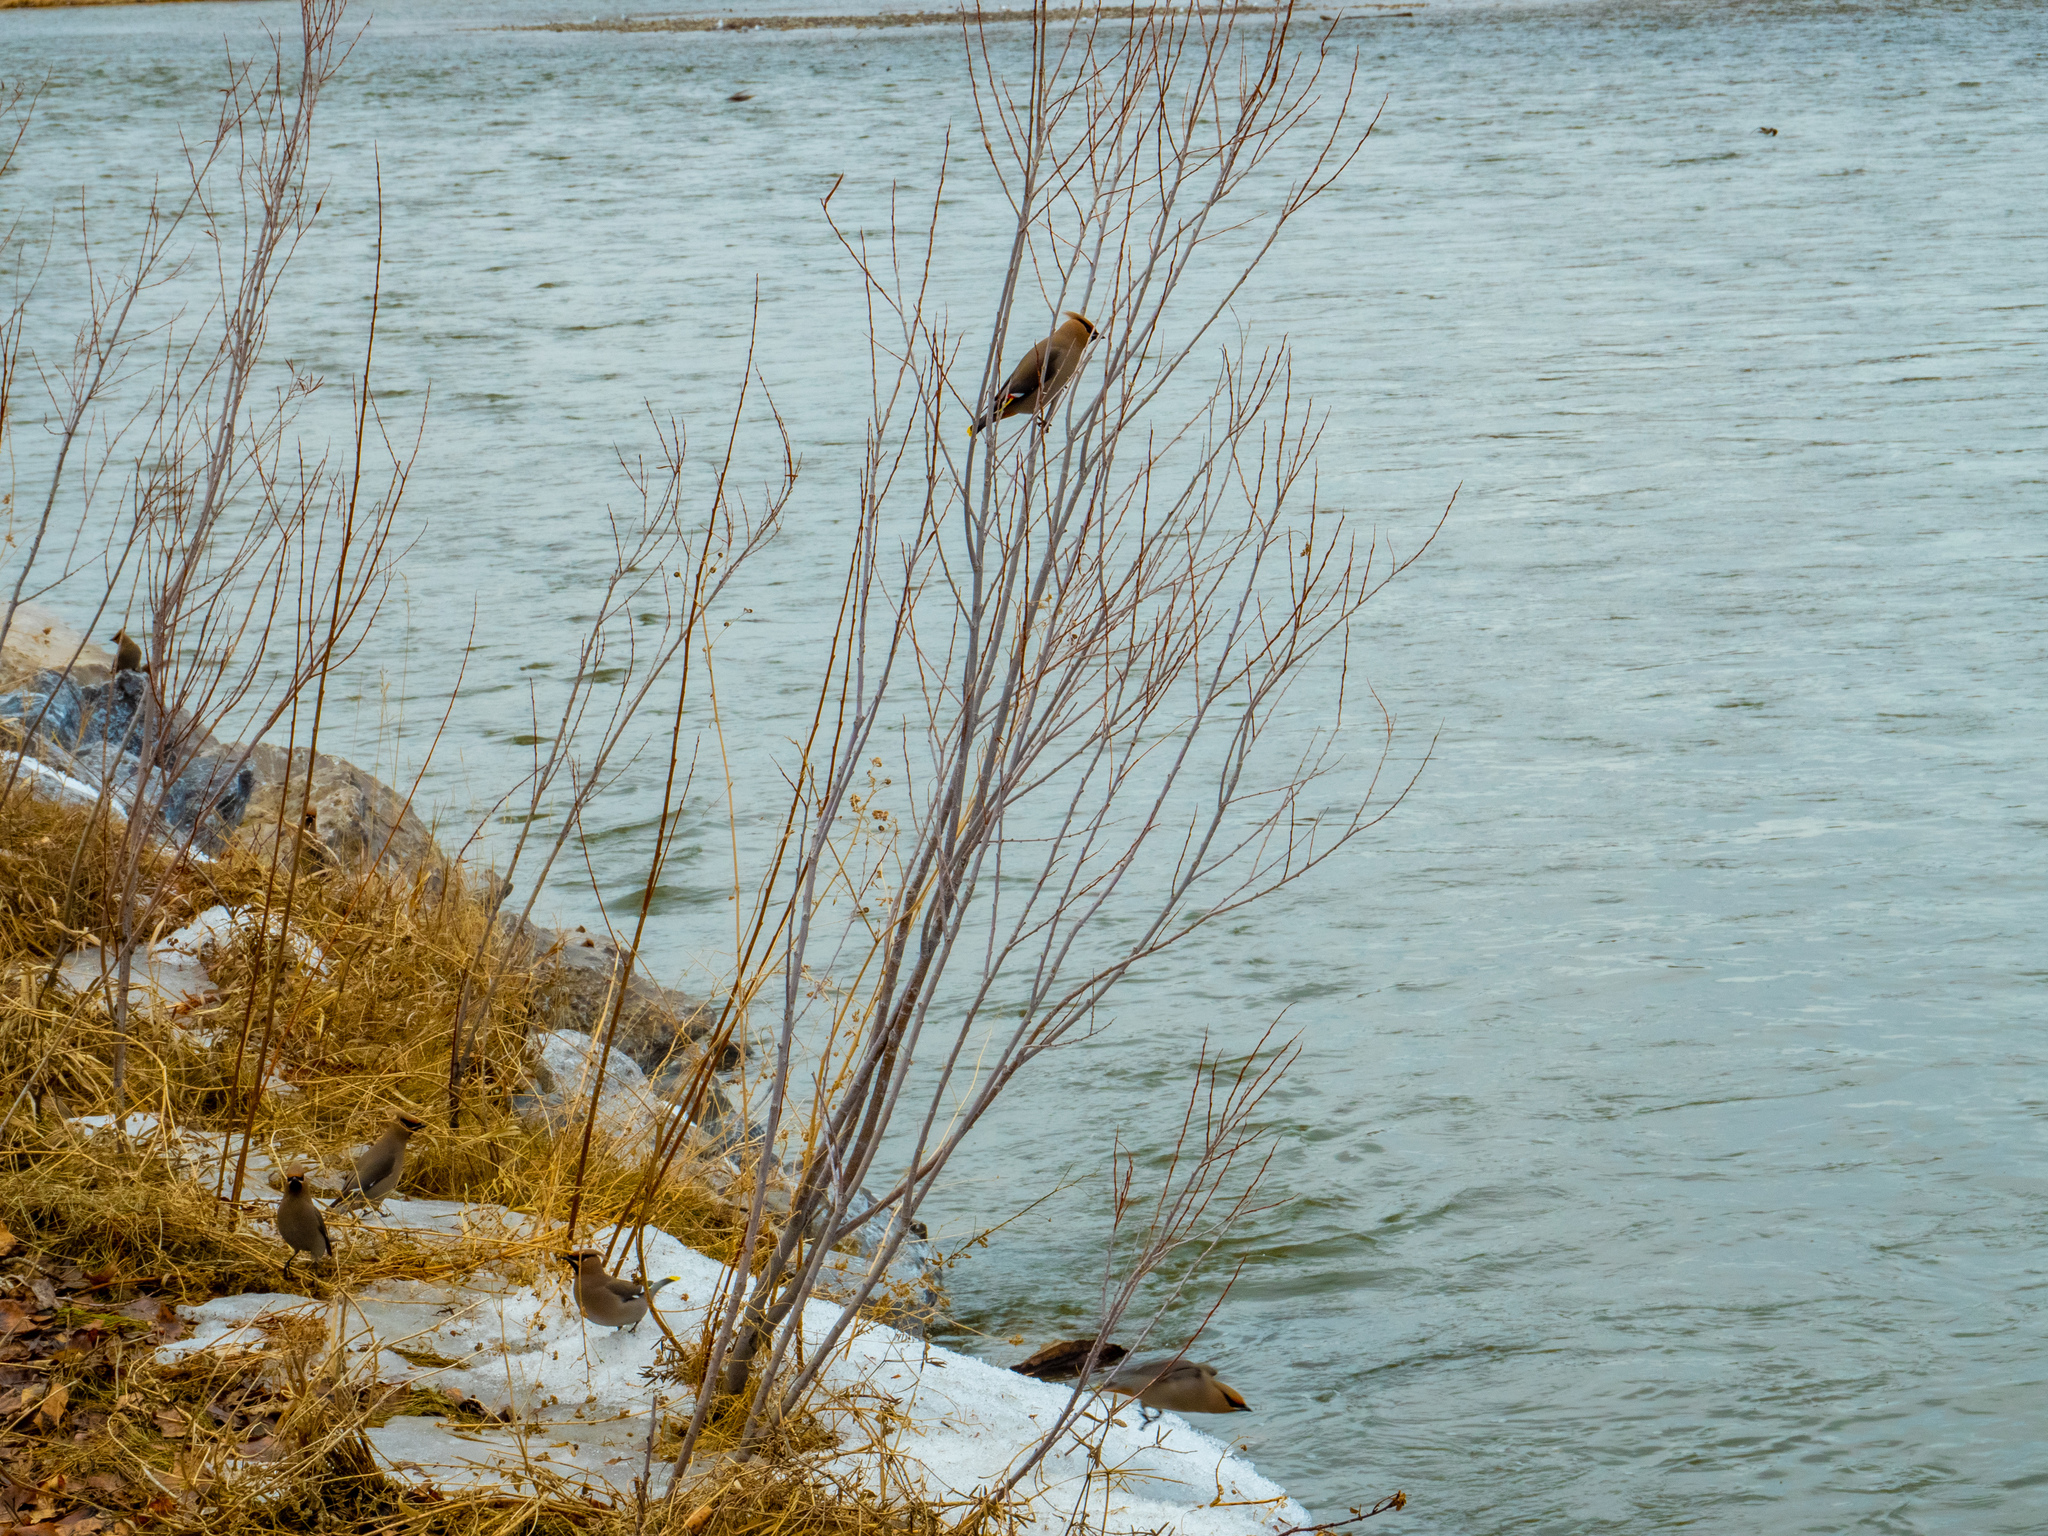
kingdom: Animalia
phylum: Chordata
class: Aves
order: Passeriformes
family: Bombycillidae
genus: Bombycilla
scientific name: Bombycilla garrulus
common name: Bohemian waxwing
